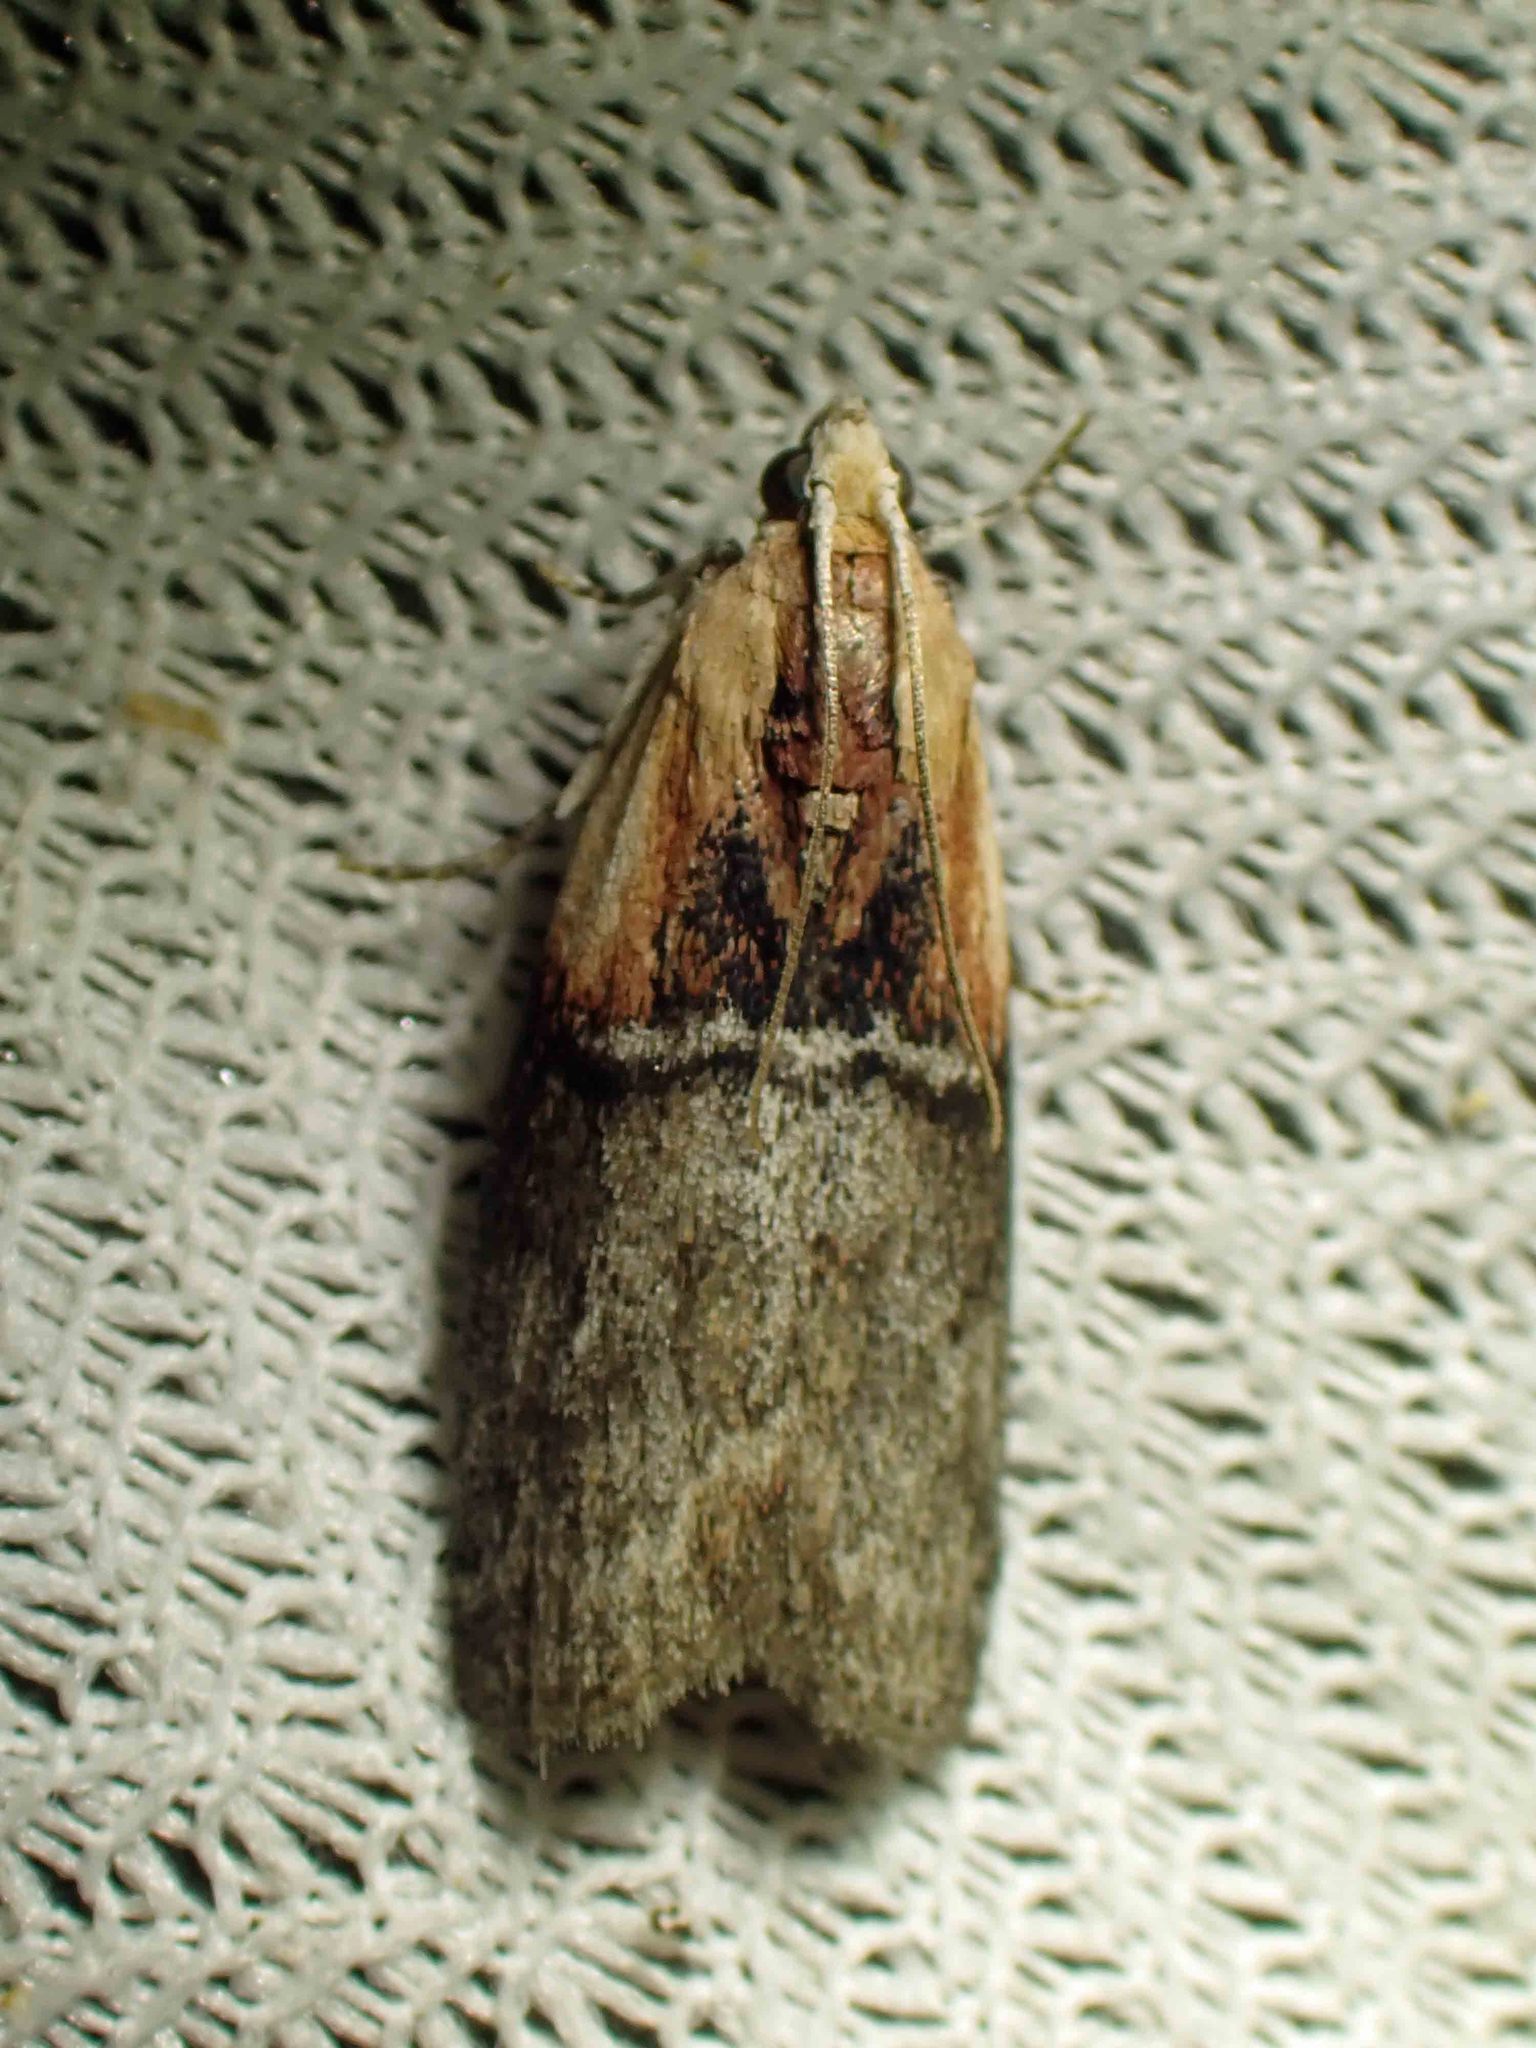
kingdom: Animalia
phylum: Arthropoda
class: Insecta
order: Lepidoptera
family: Pyralidae
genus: Sciota
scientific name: Sciota basilaris
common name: Yellow-shouldered leafroller
